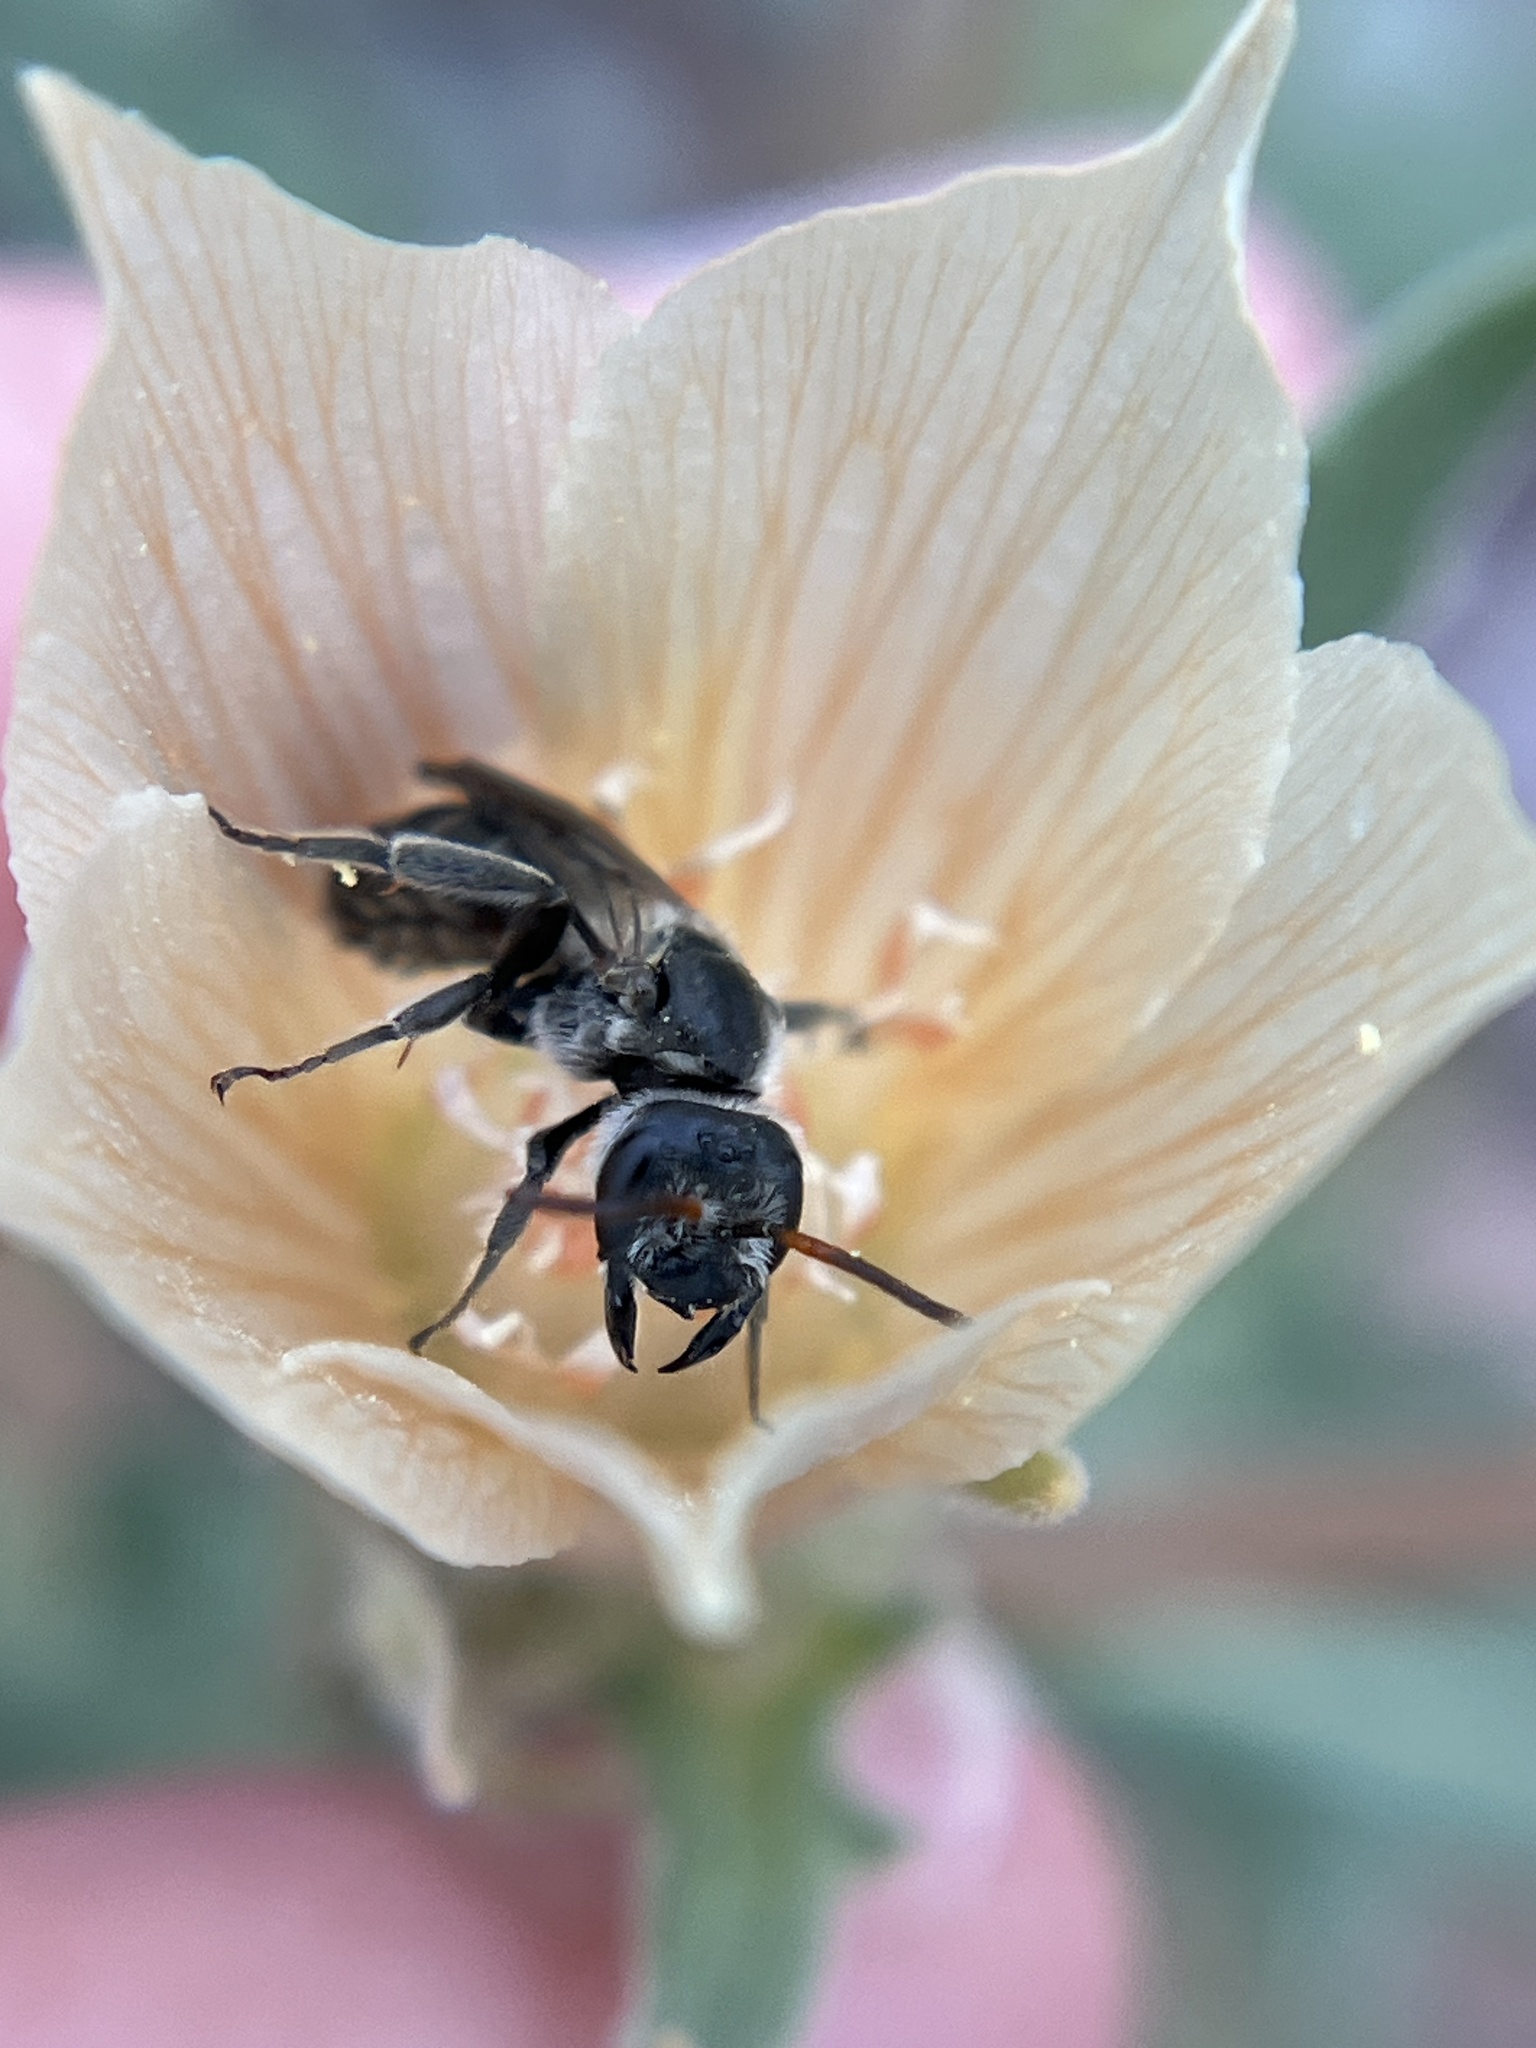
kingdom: Animalia
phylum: Arthropoda
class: Insecta
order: Hymenoptera
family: Halictidae
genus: Xeralictus
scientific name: Xeralictus bicuspidariae
